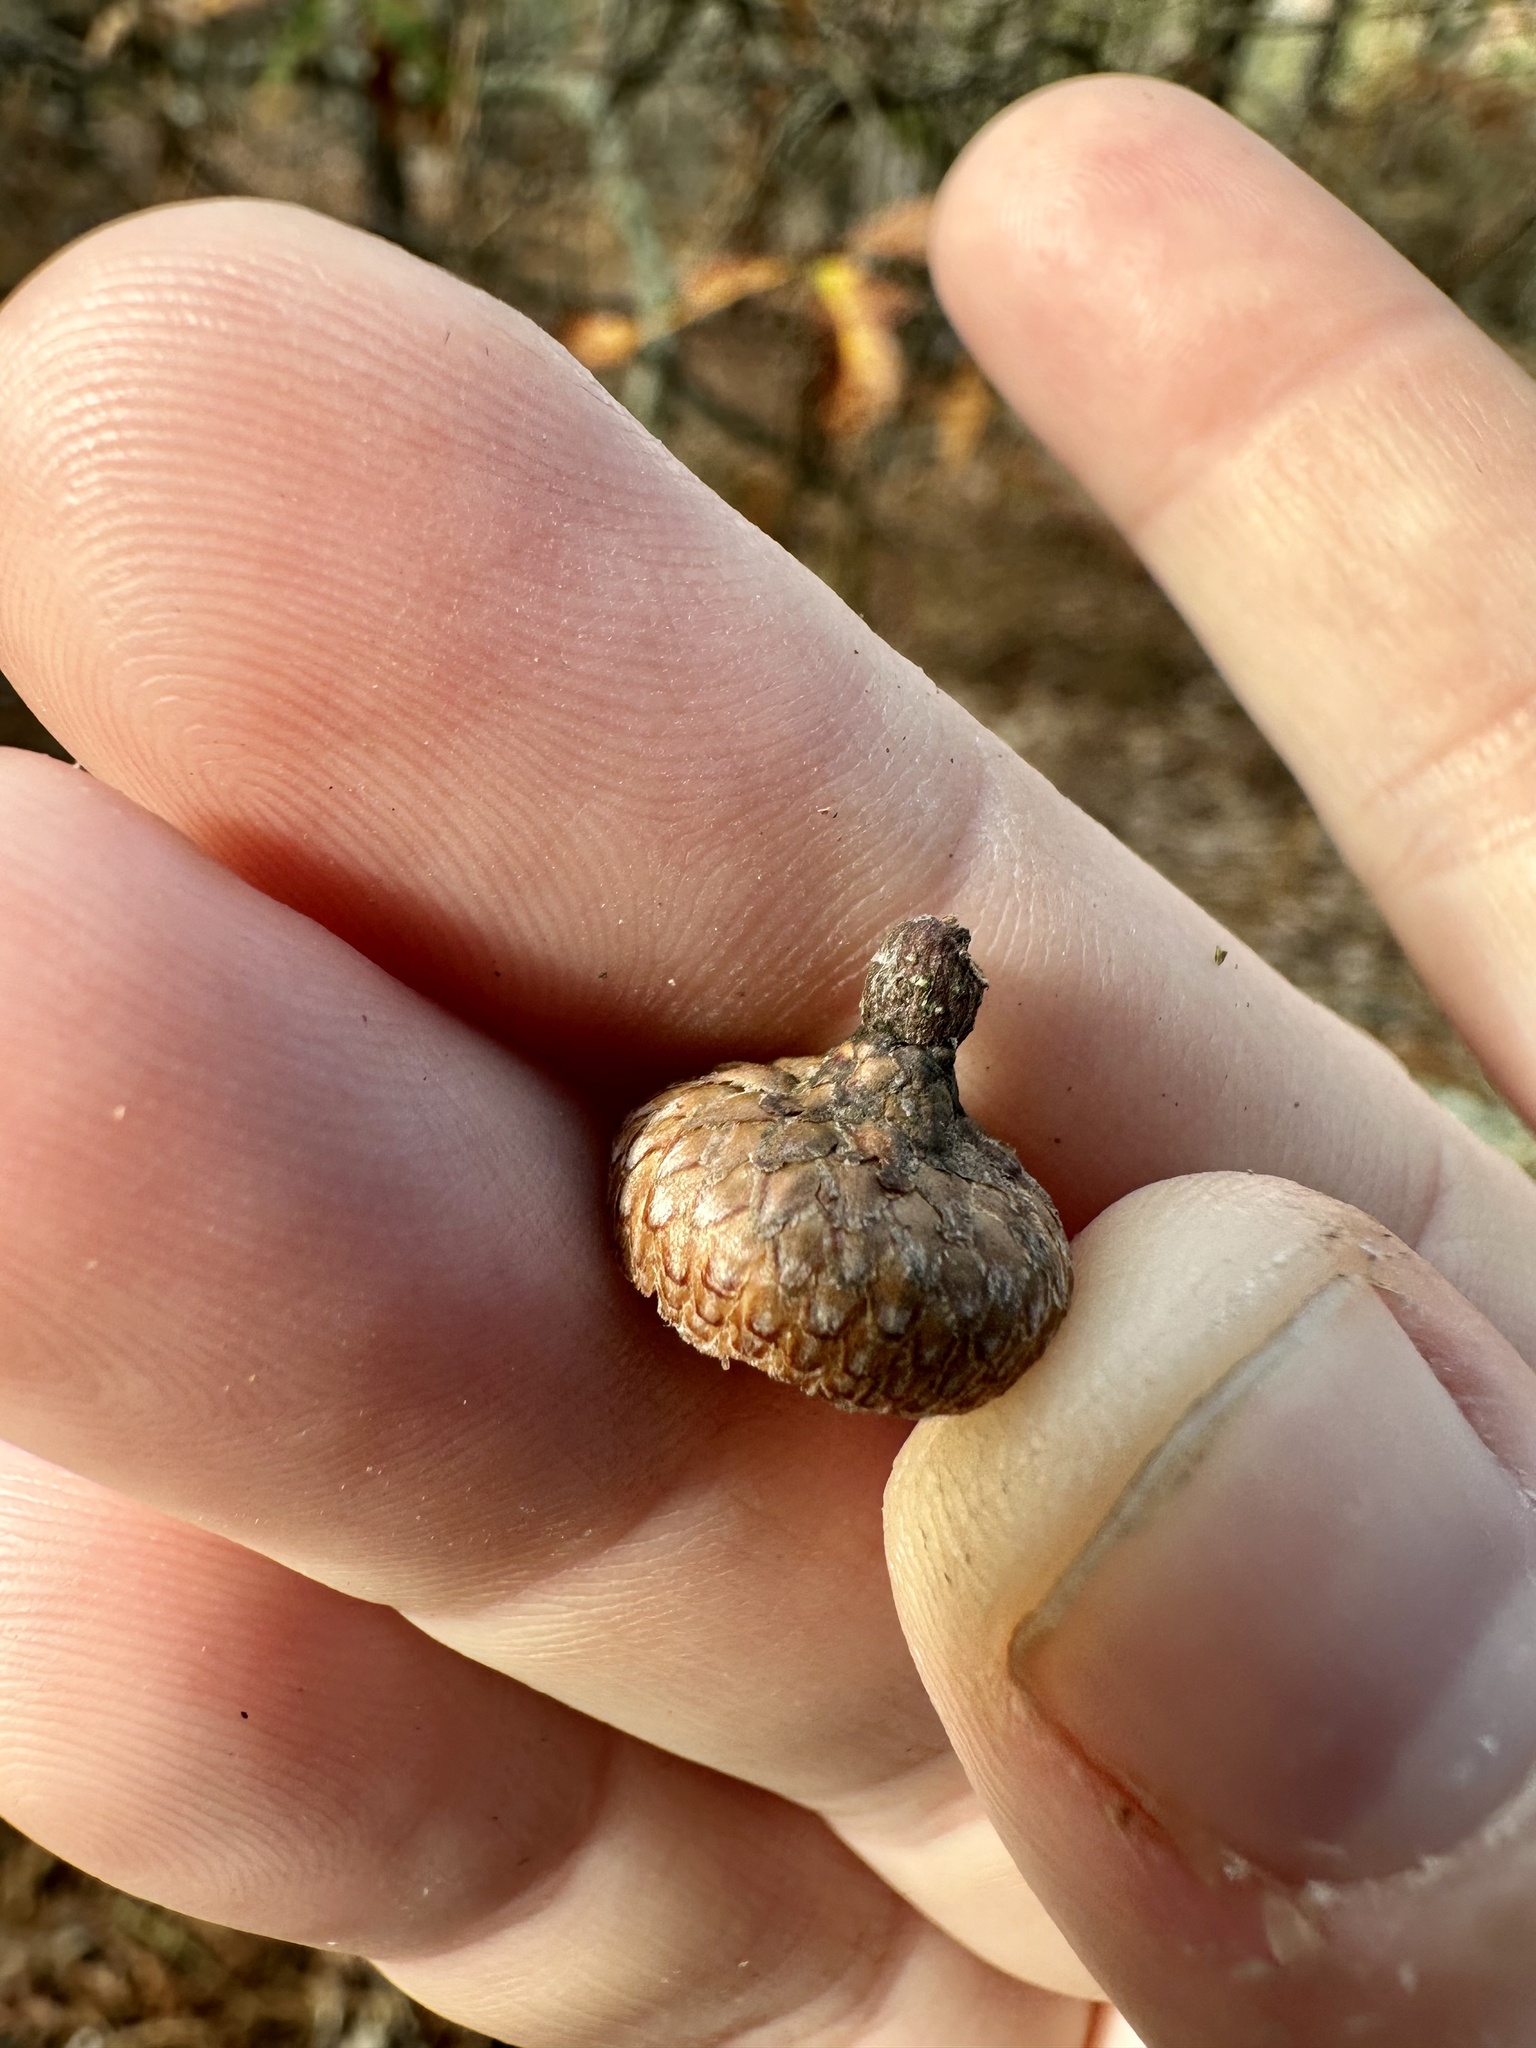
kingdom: Plantae
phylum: Tracheophyta
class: Magnoliopsida
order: Fagales
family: Fagaceae
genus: Quercus
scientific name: Quercus georgiana
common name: Georgia oak
